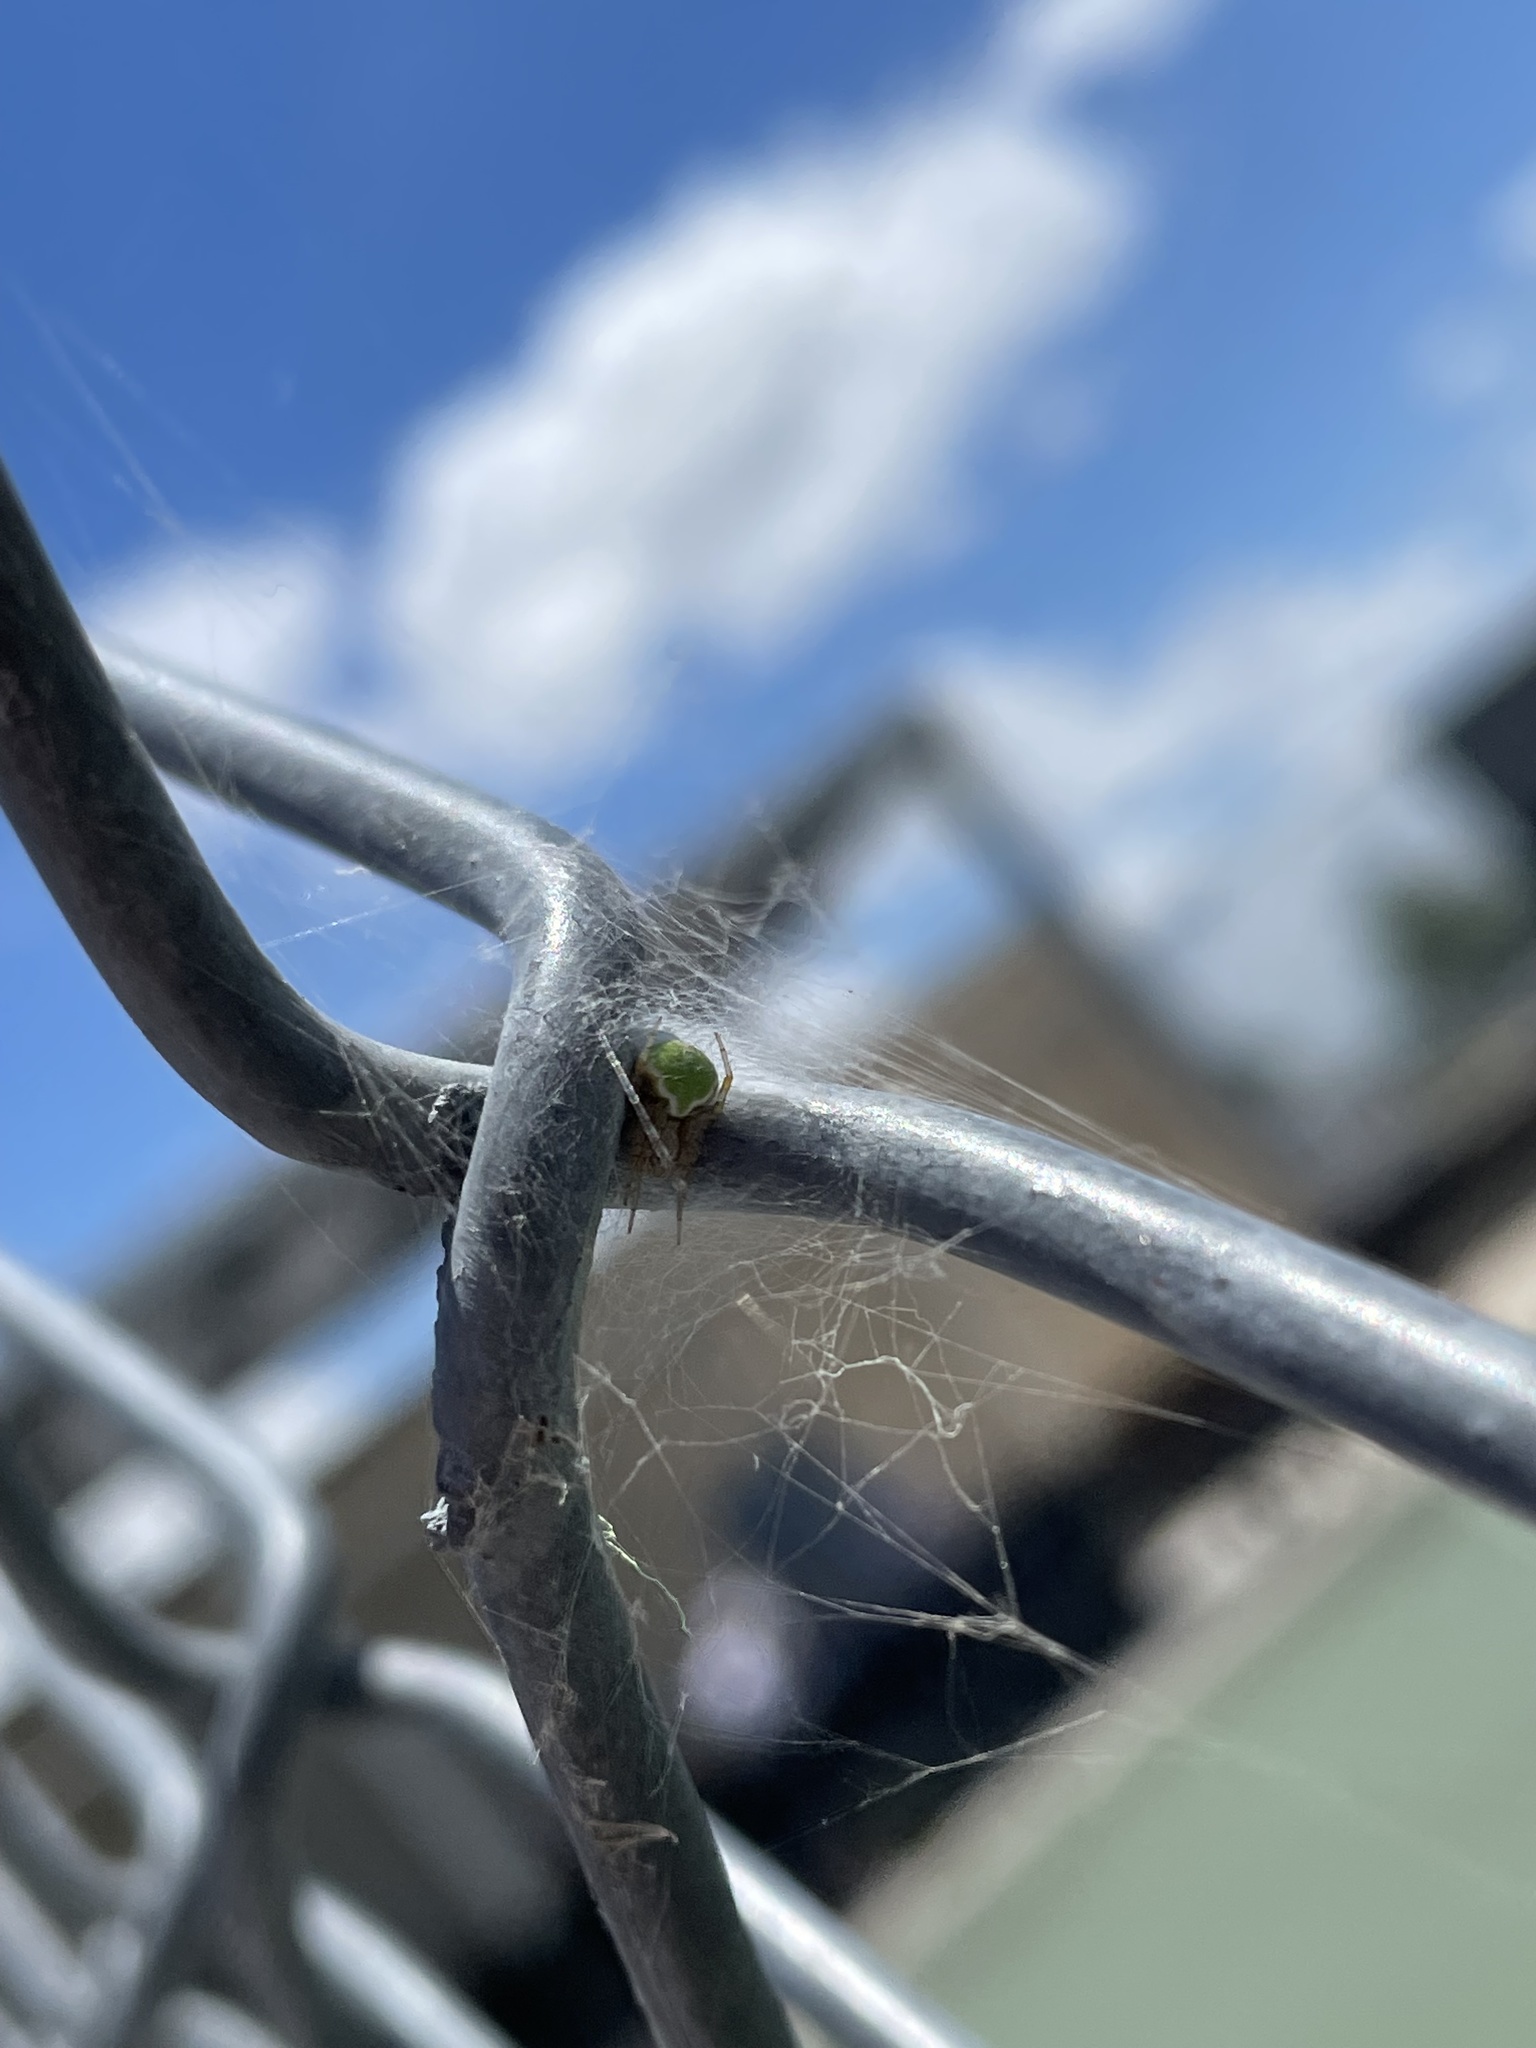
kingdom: Animalia
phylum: Arthropoda
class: Arachnida
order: Araneae
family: Araneidae
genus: Araneus
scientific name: Araneus detrimentosus
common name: Orb weavers
